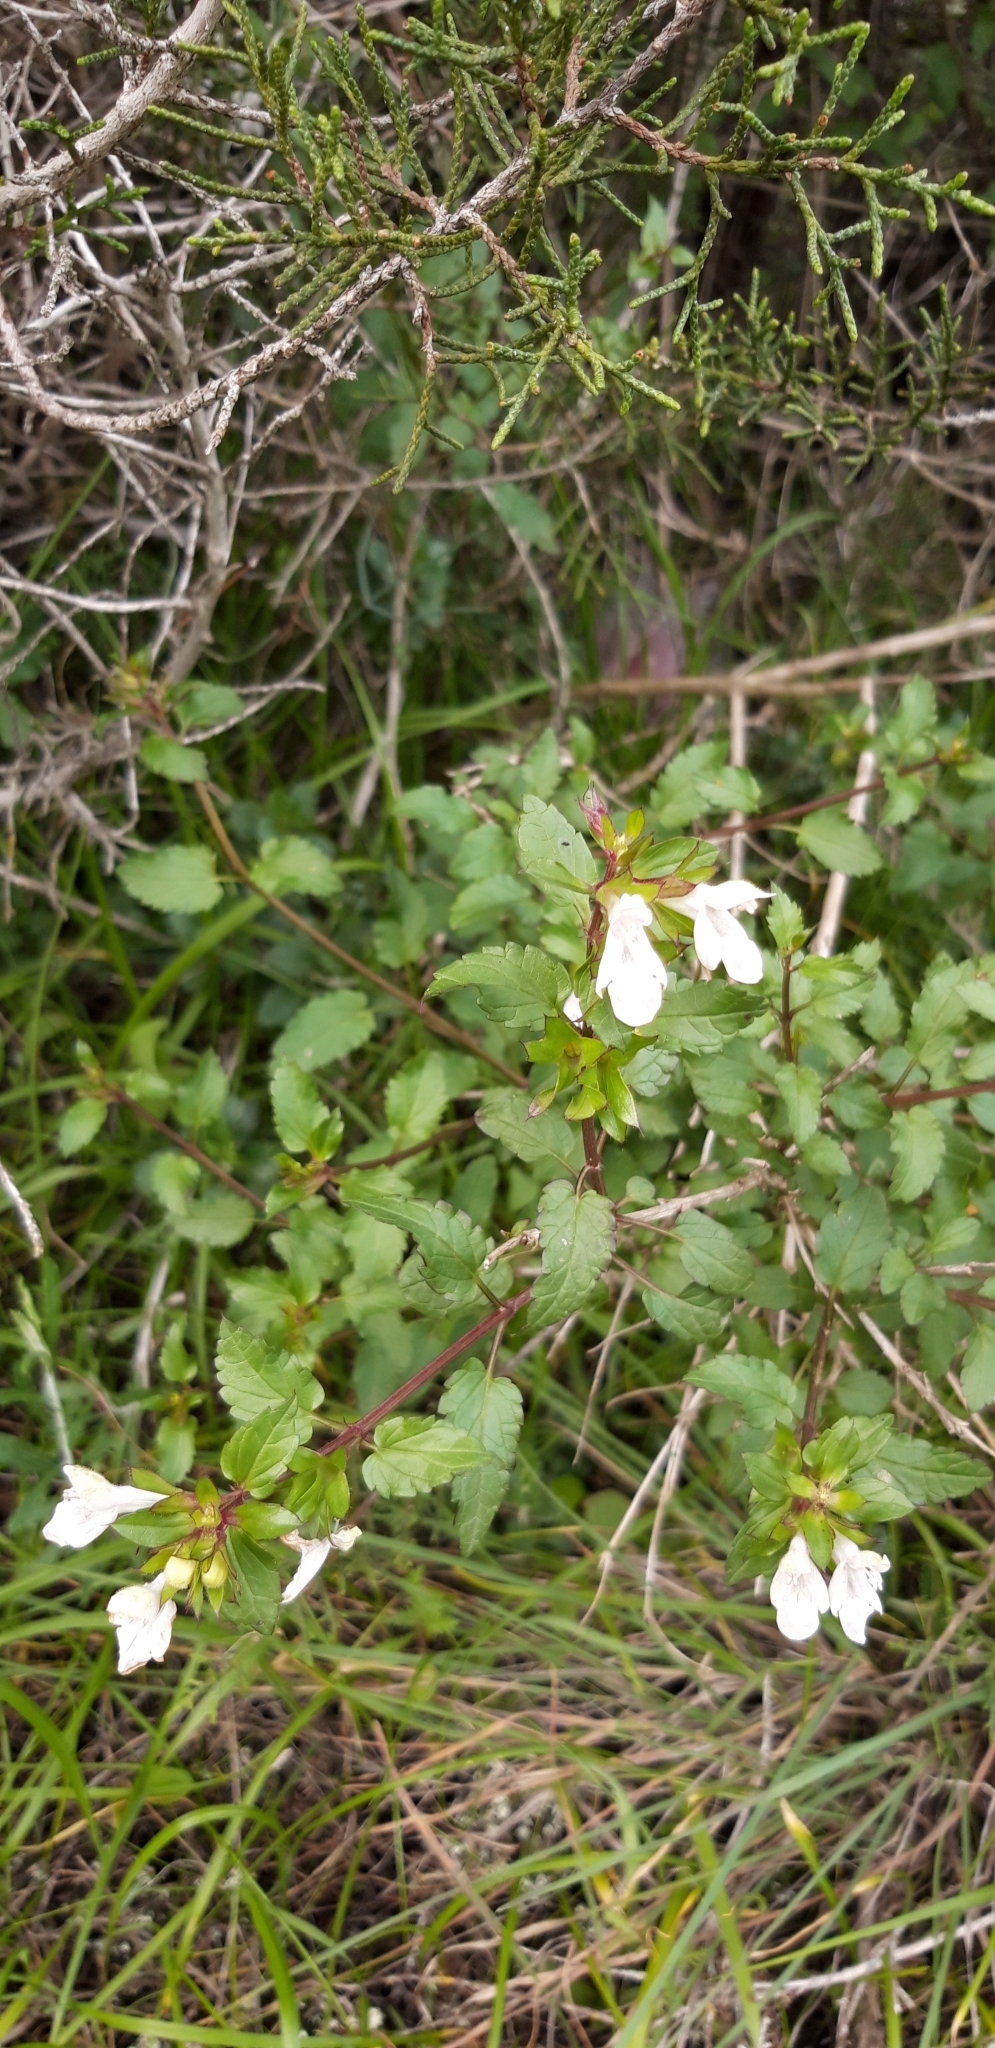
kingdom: Plantae
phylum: Tracheophyta
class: Magnoliopsida
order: Lamiales
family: Lamiaceae
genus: Prasium
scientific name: Prasium majus
